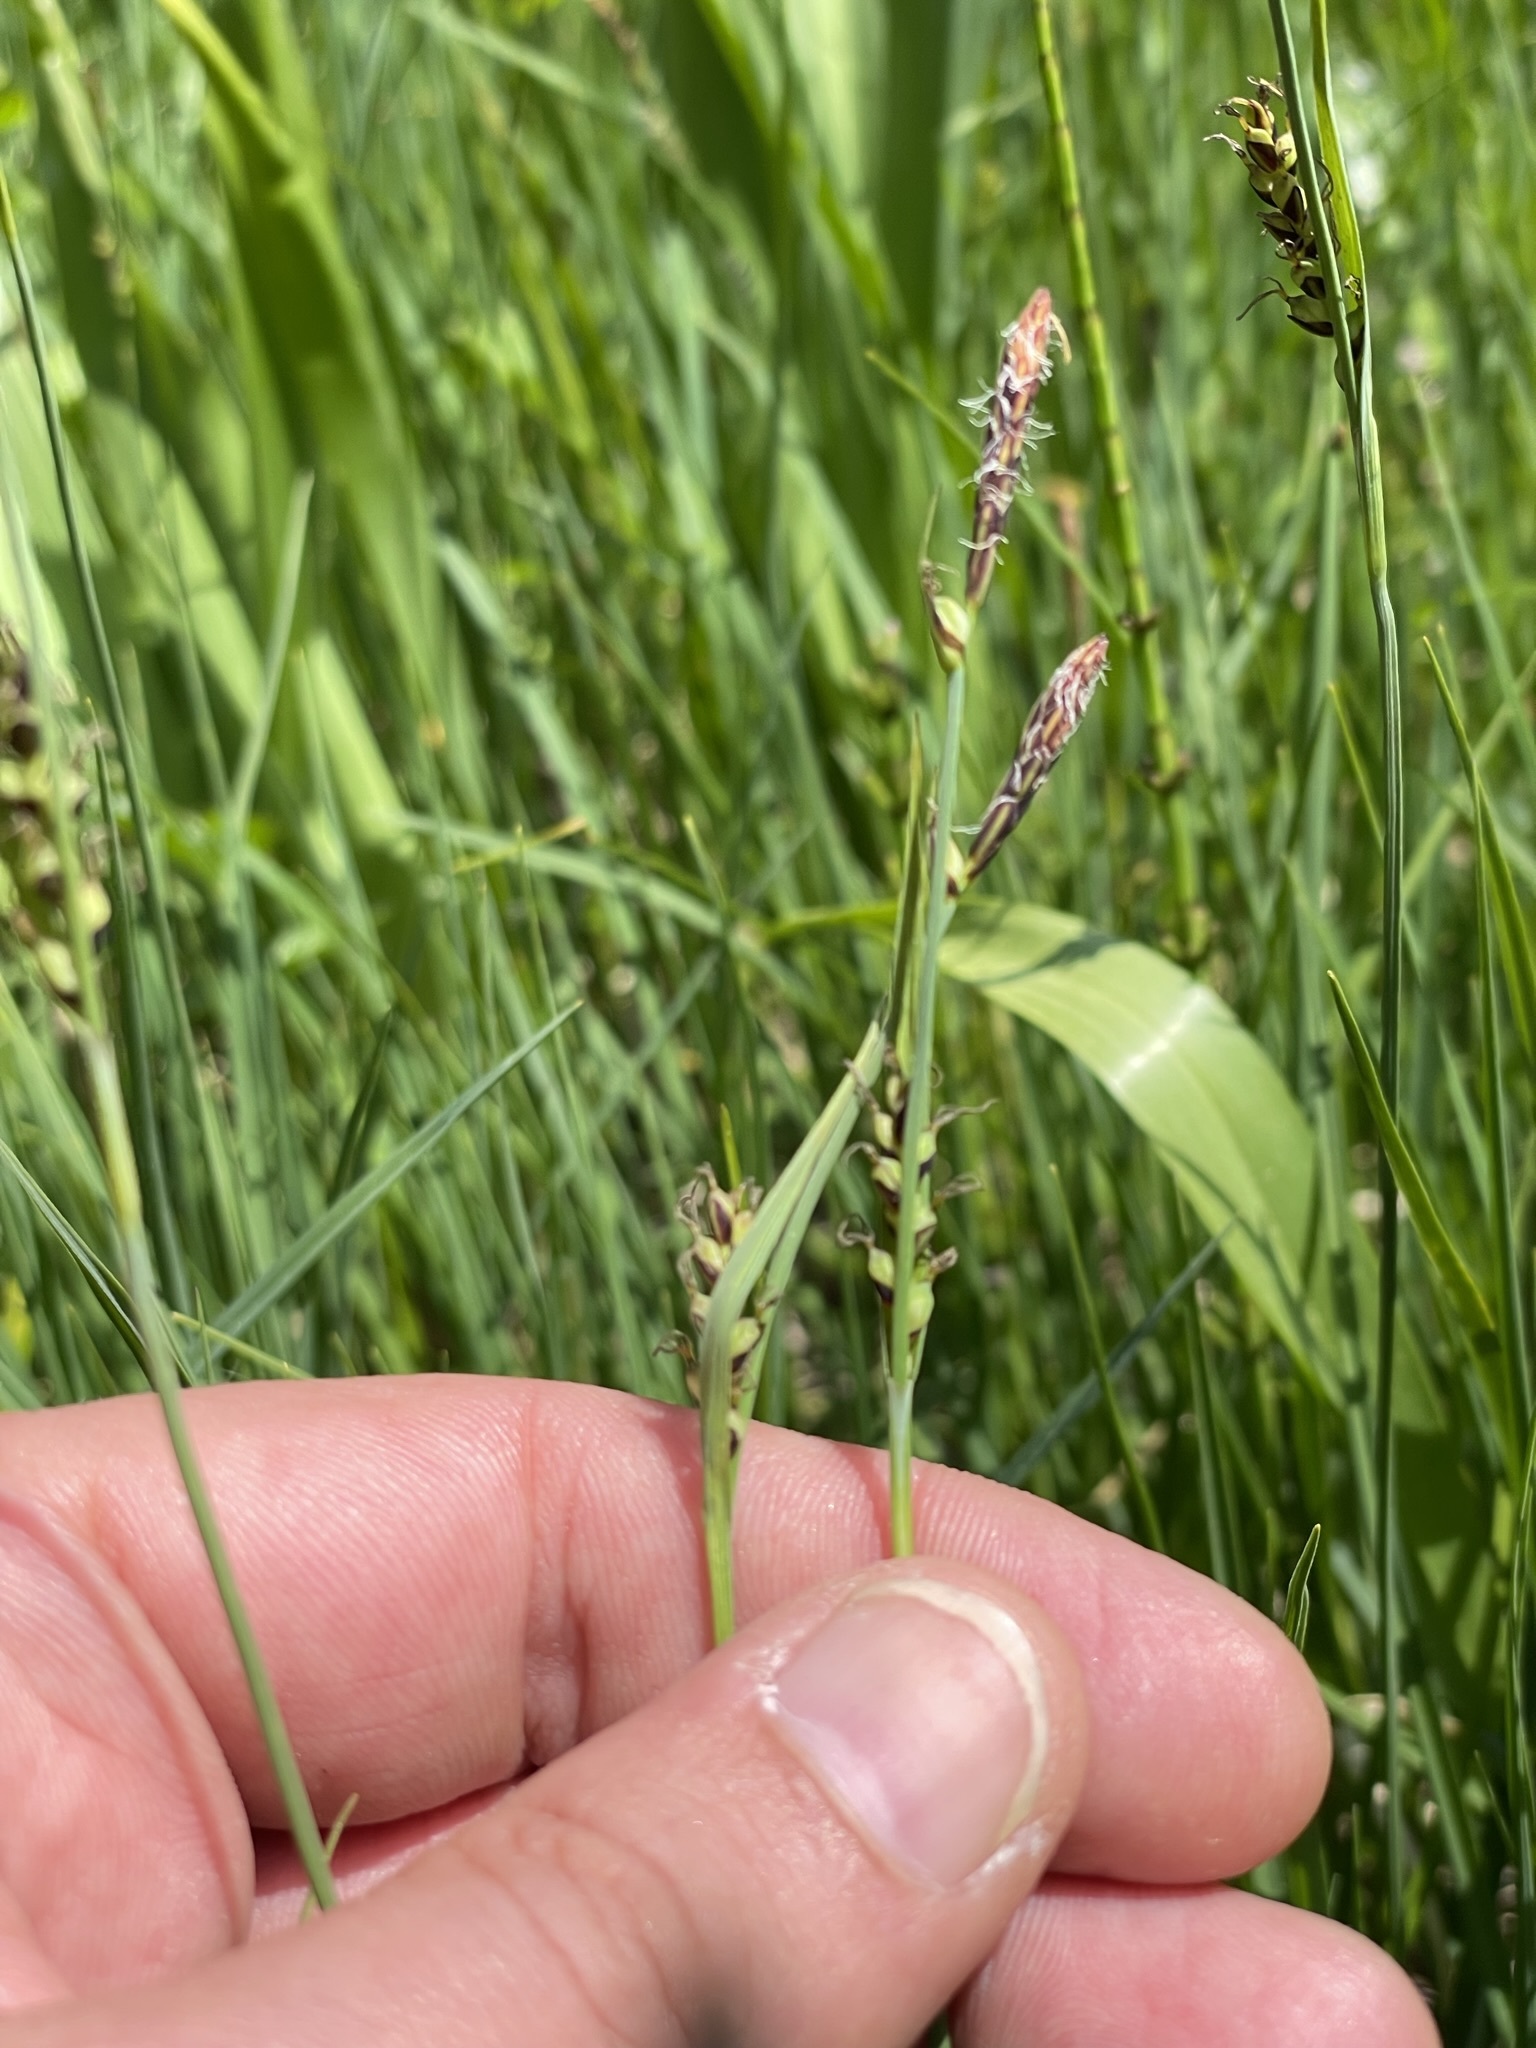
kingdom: Plantae
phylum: Tracheophyta
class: Liliopsida
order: Poales
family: Cyperaceae
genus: Carex
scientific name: Carex panicea
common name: Carnation sedge
